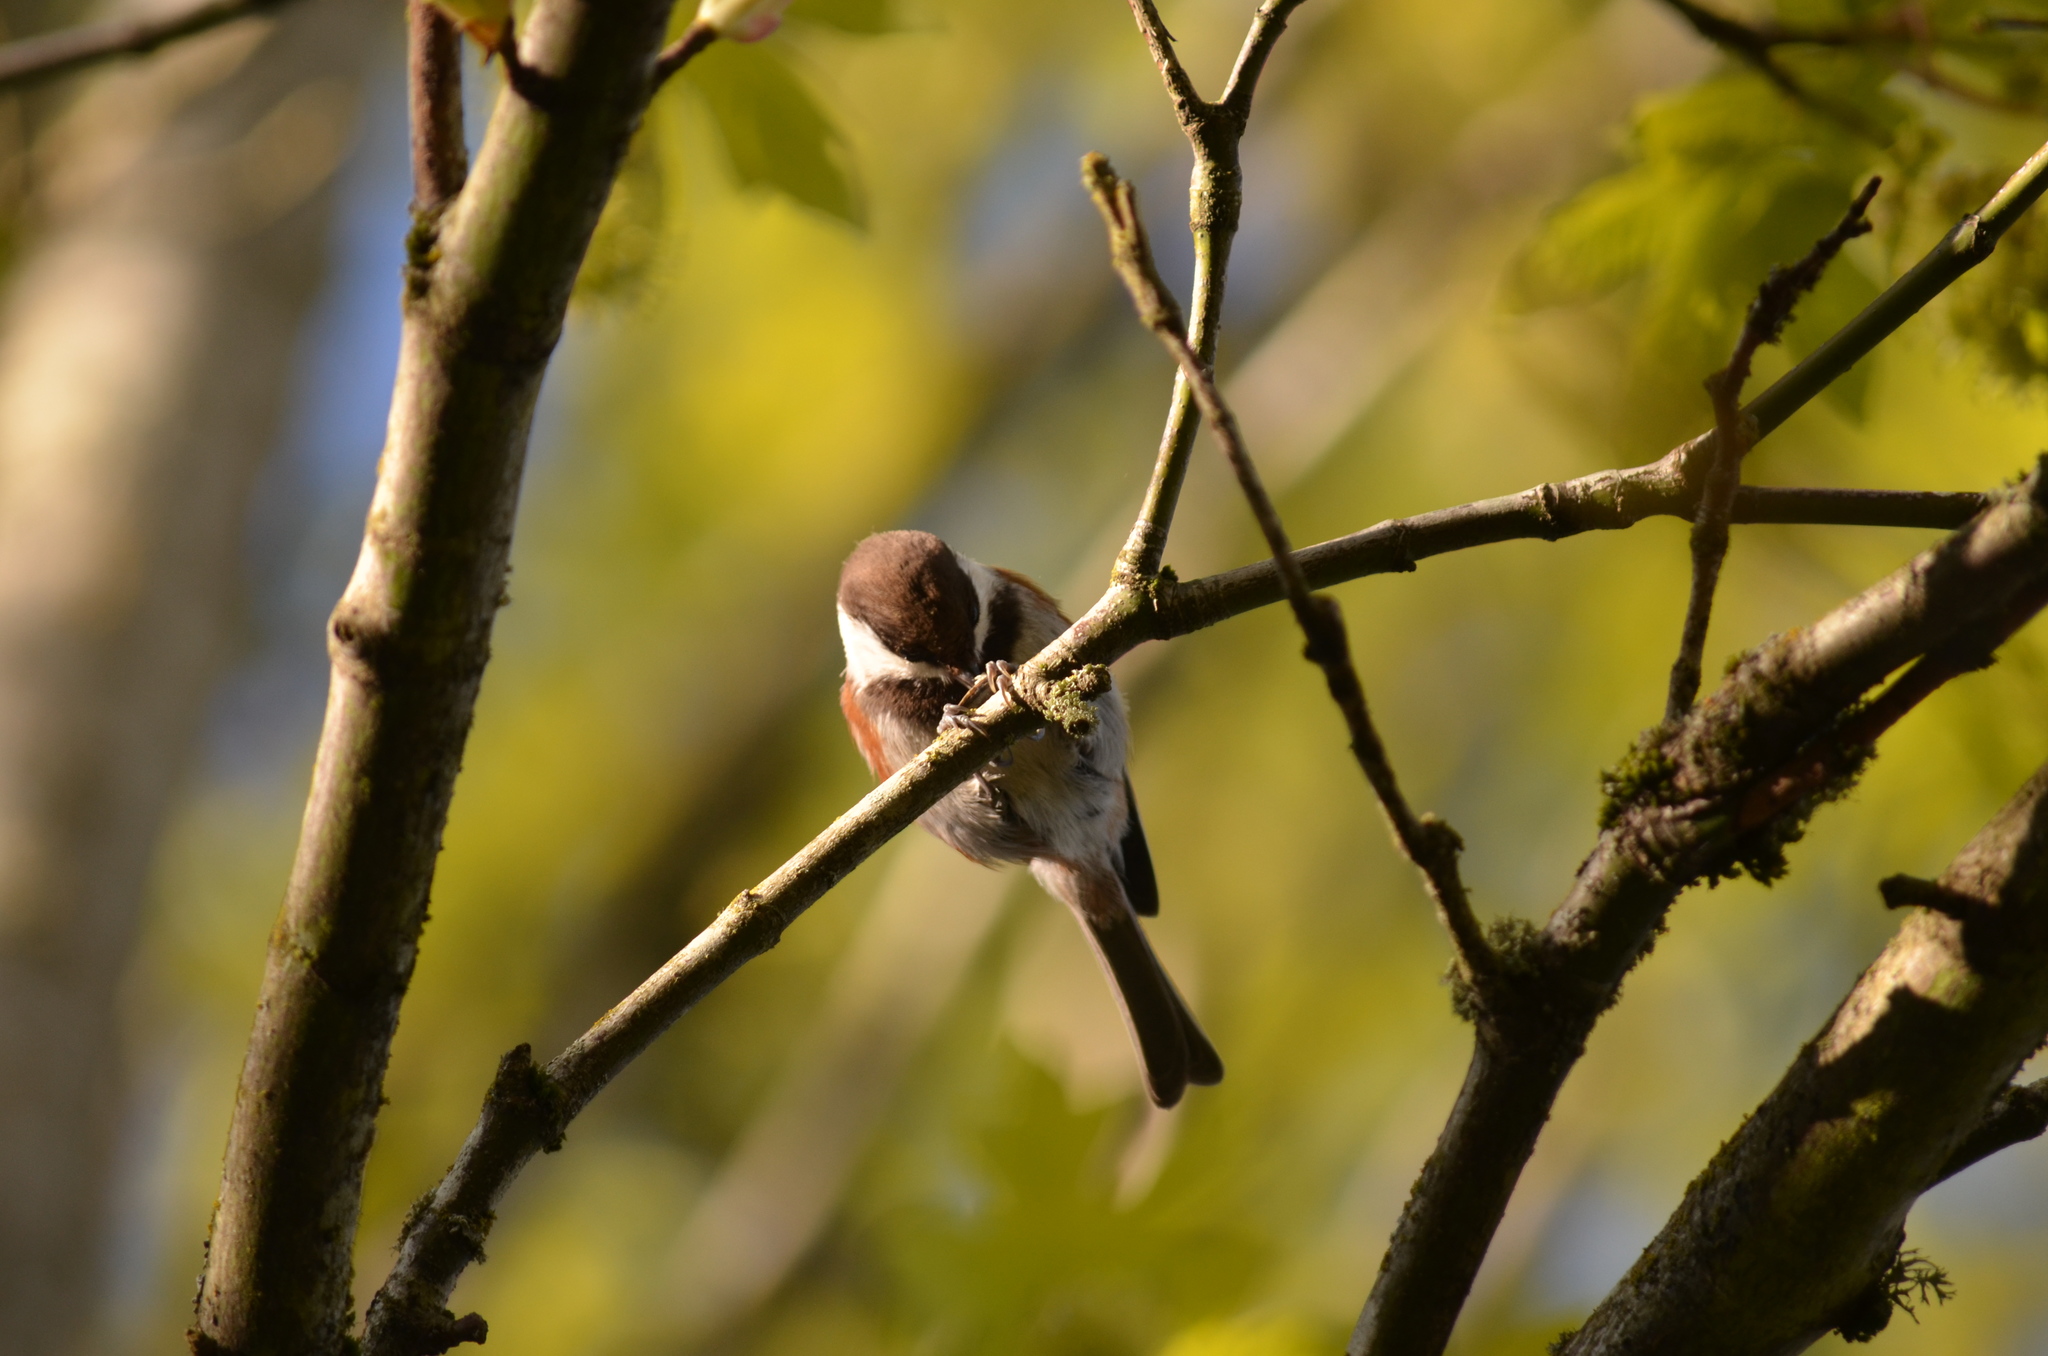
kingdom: Animalia
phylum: Chordata
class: Aves
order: Passeriformes
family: Paridae
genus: Poecile
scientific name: Poecile rufescens
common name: Chestnut-backed chickadee
